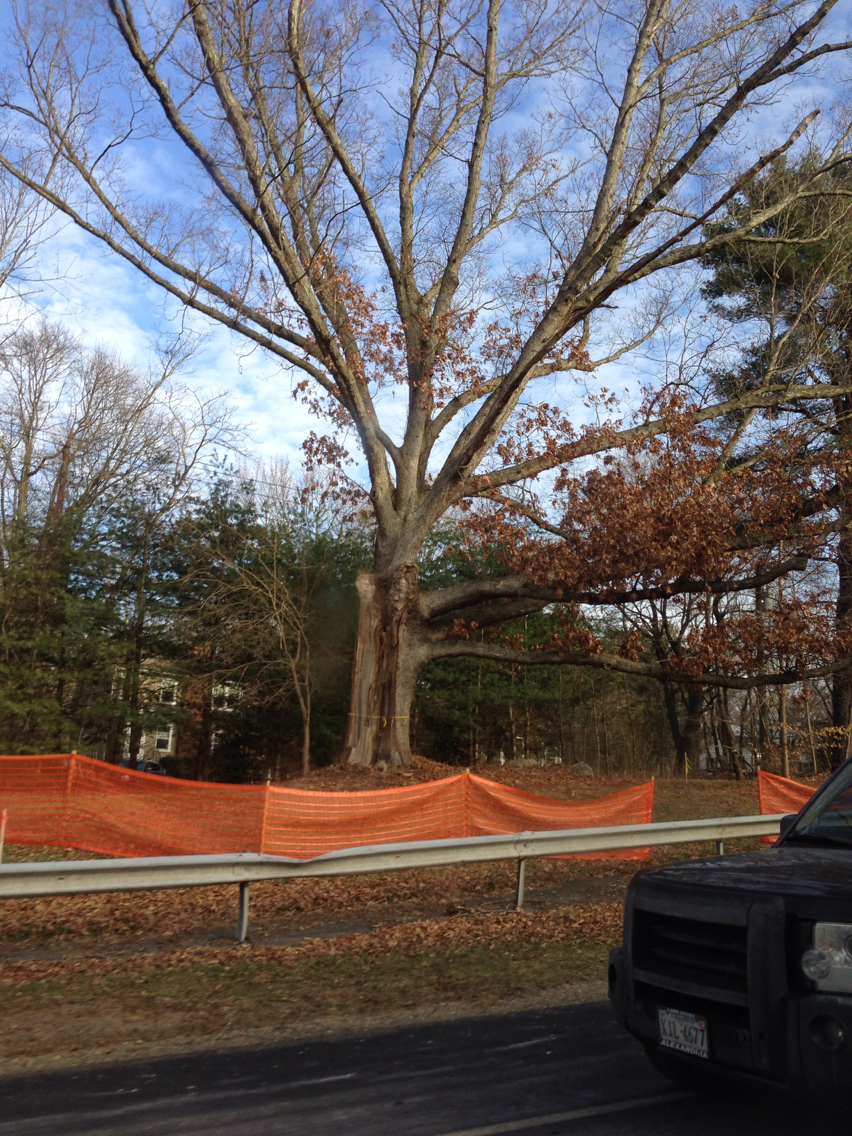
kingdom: Plantae
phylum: Tracheophyta
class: Magnoliopsida
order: Fagales
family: Fagaceae
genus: Quercus
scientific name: Quercus alba
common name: White oak
